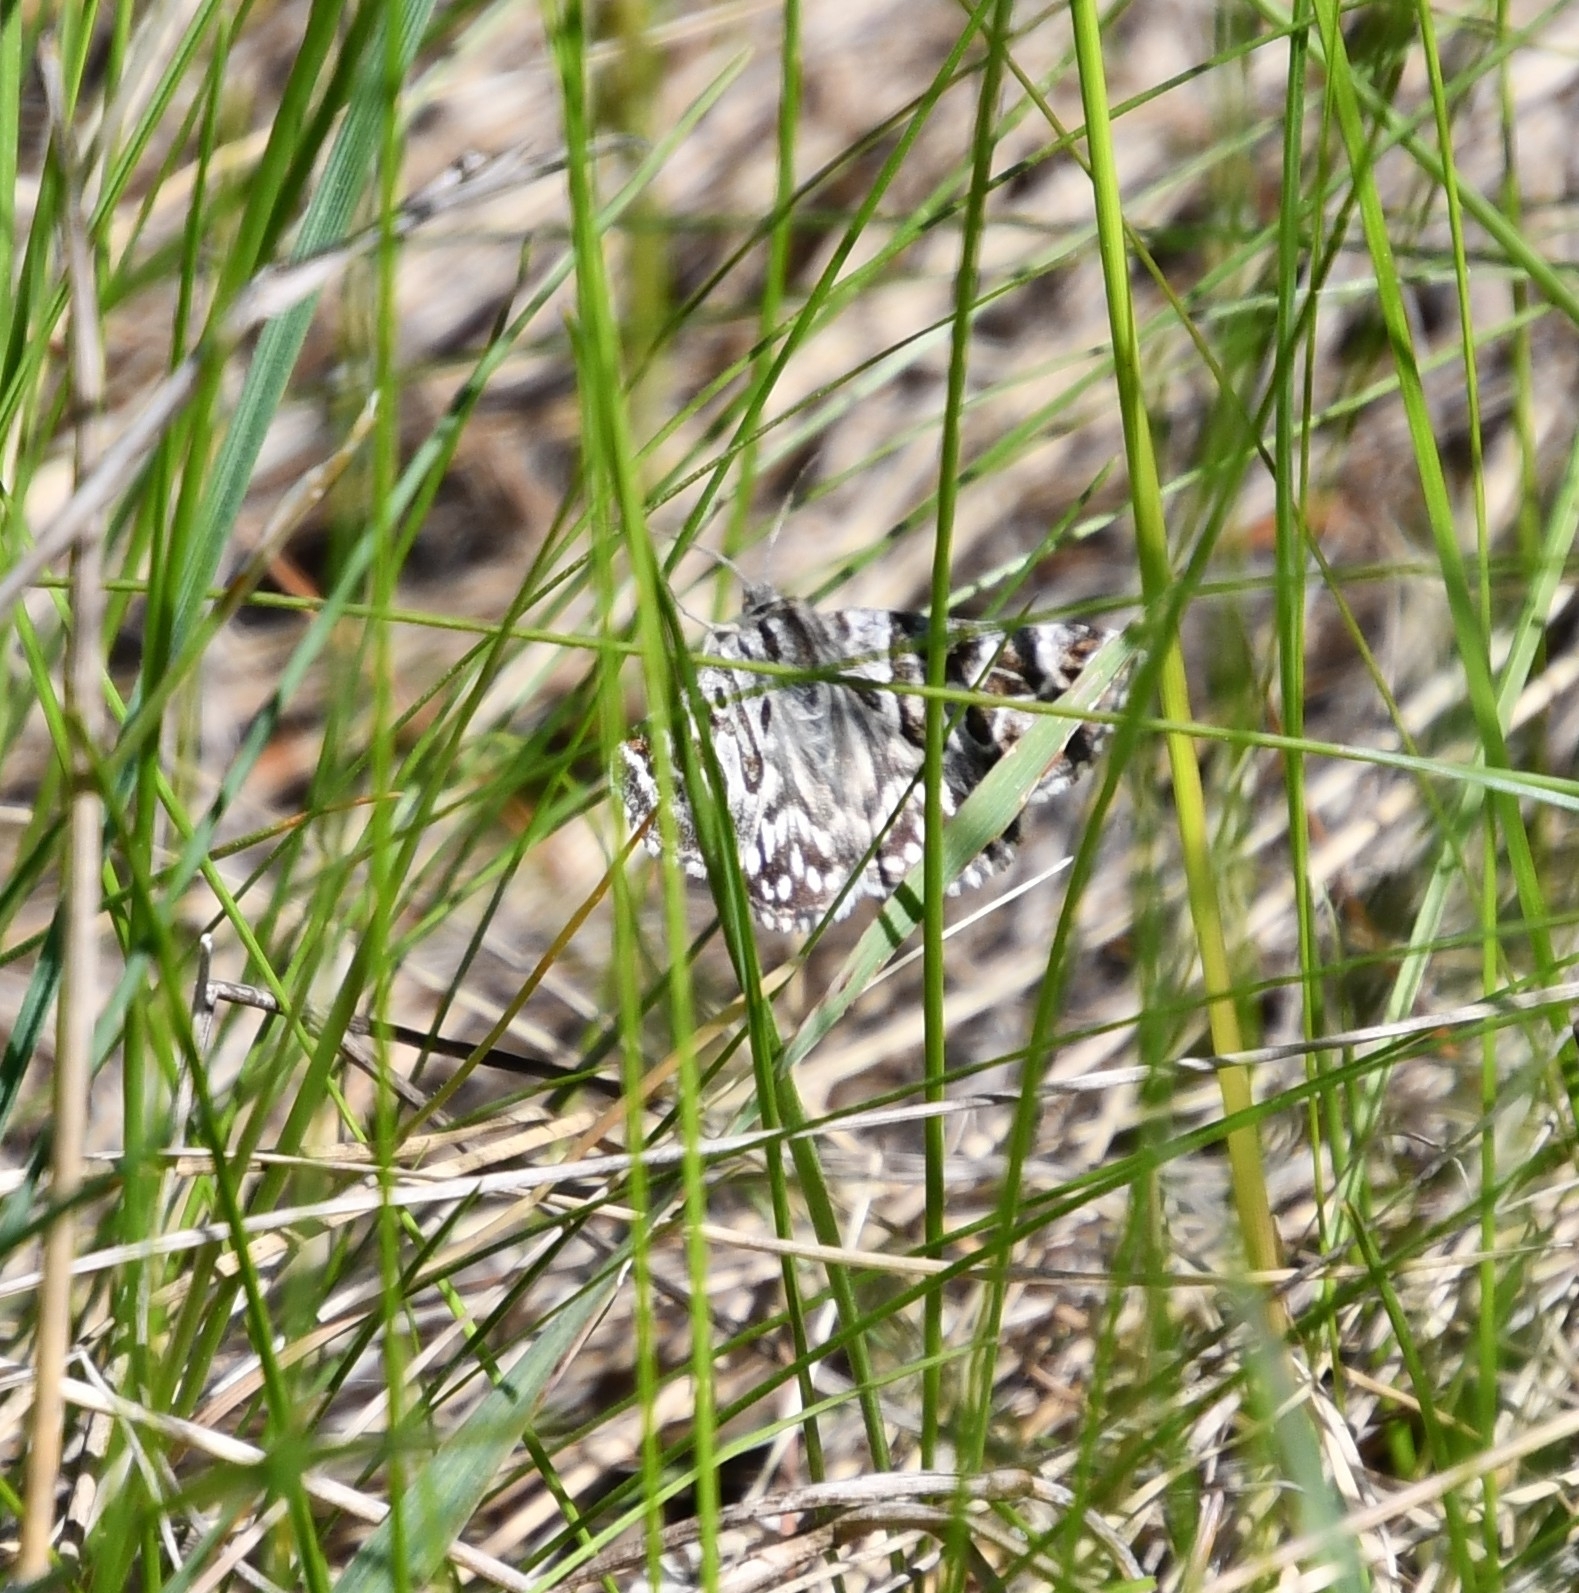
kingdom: Animalia
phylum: Arthropoda
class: Insecta
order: Lepidoptera
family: Erebidae
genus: Callistege
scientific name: Callistege mi
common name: Mother shipton
